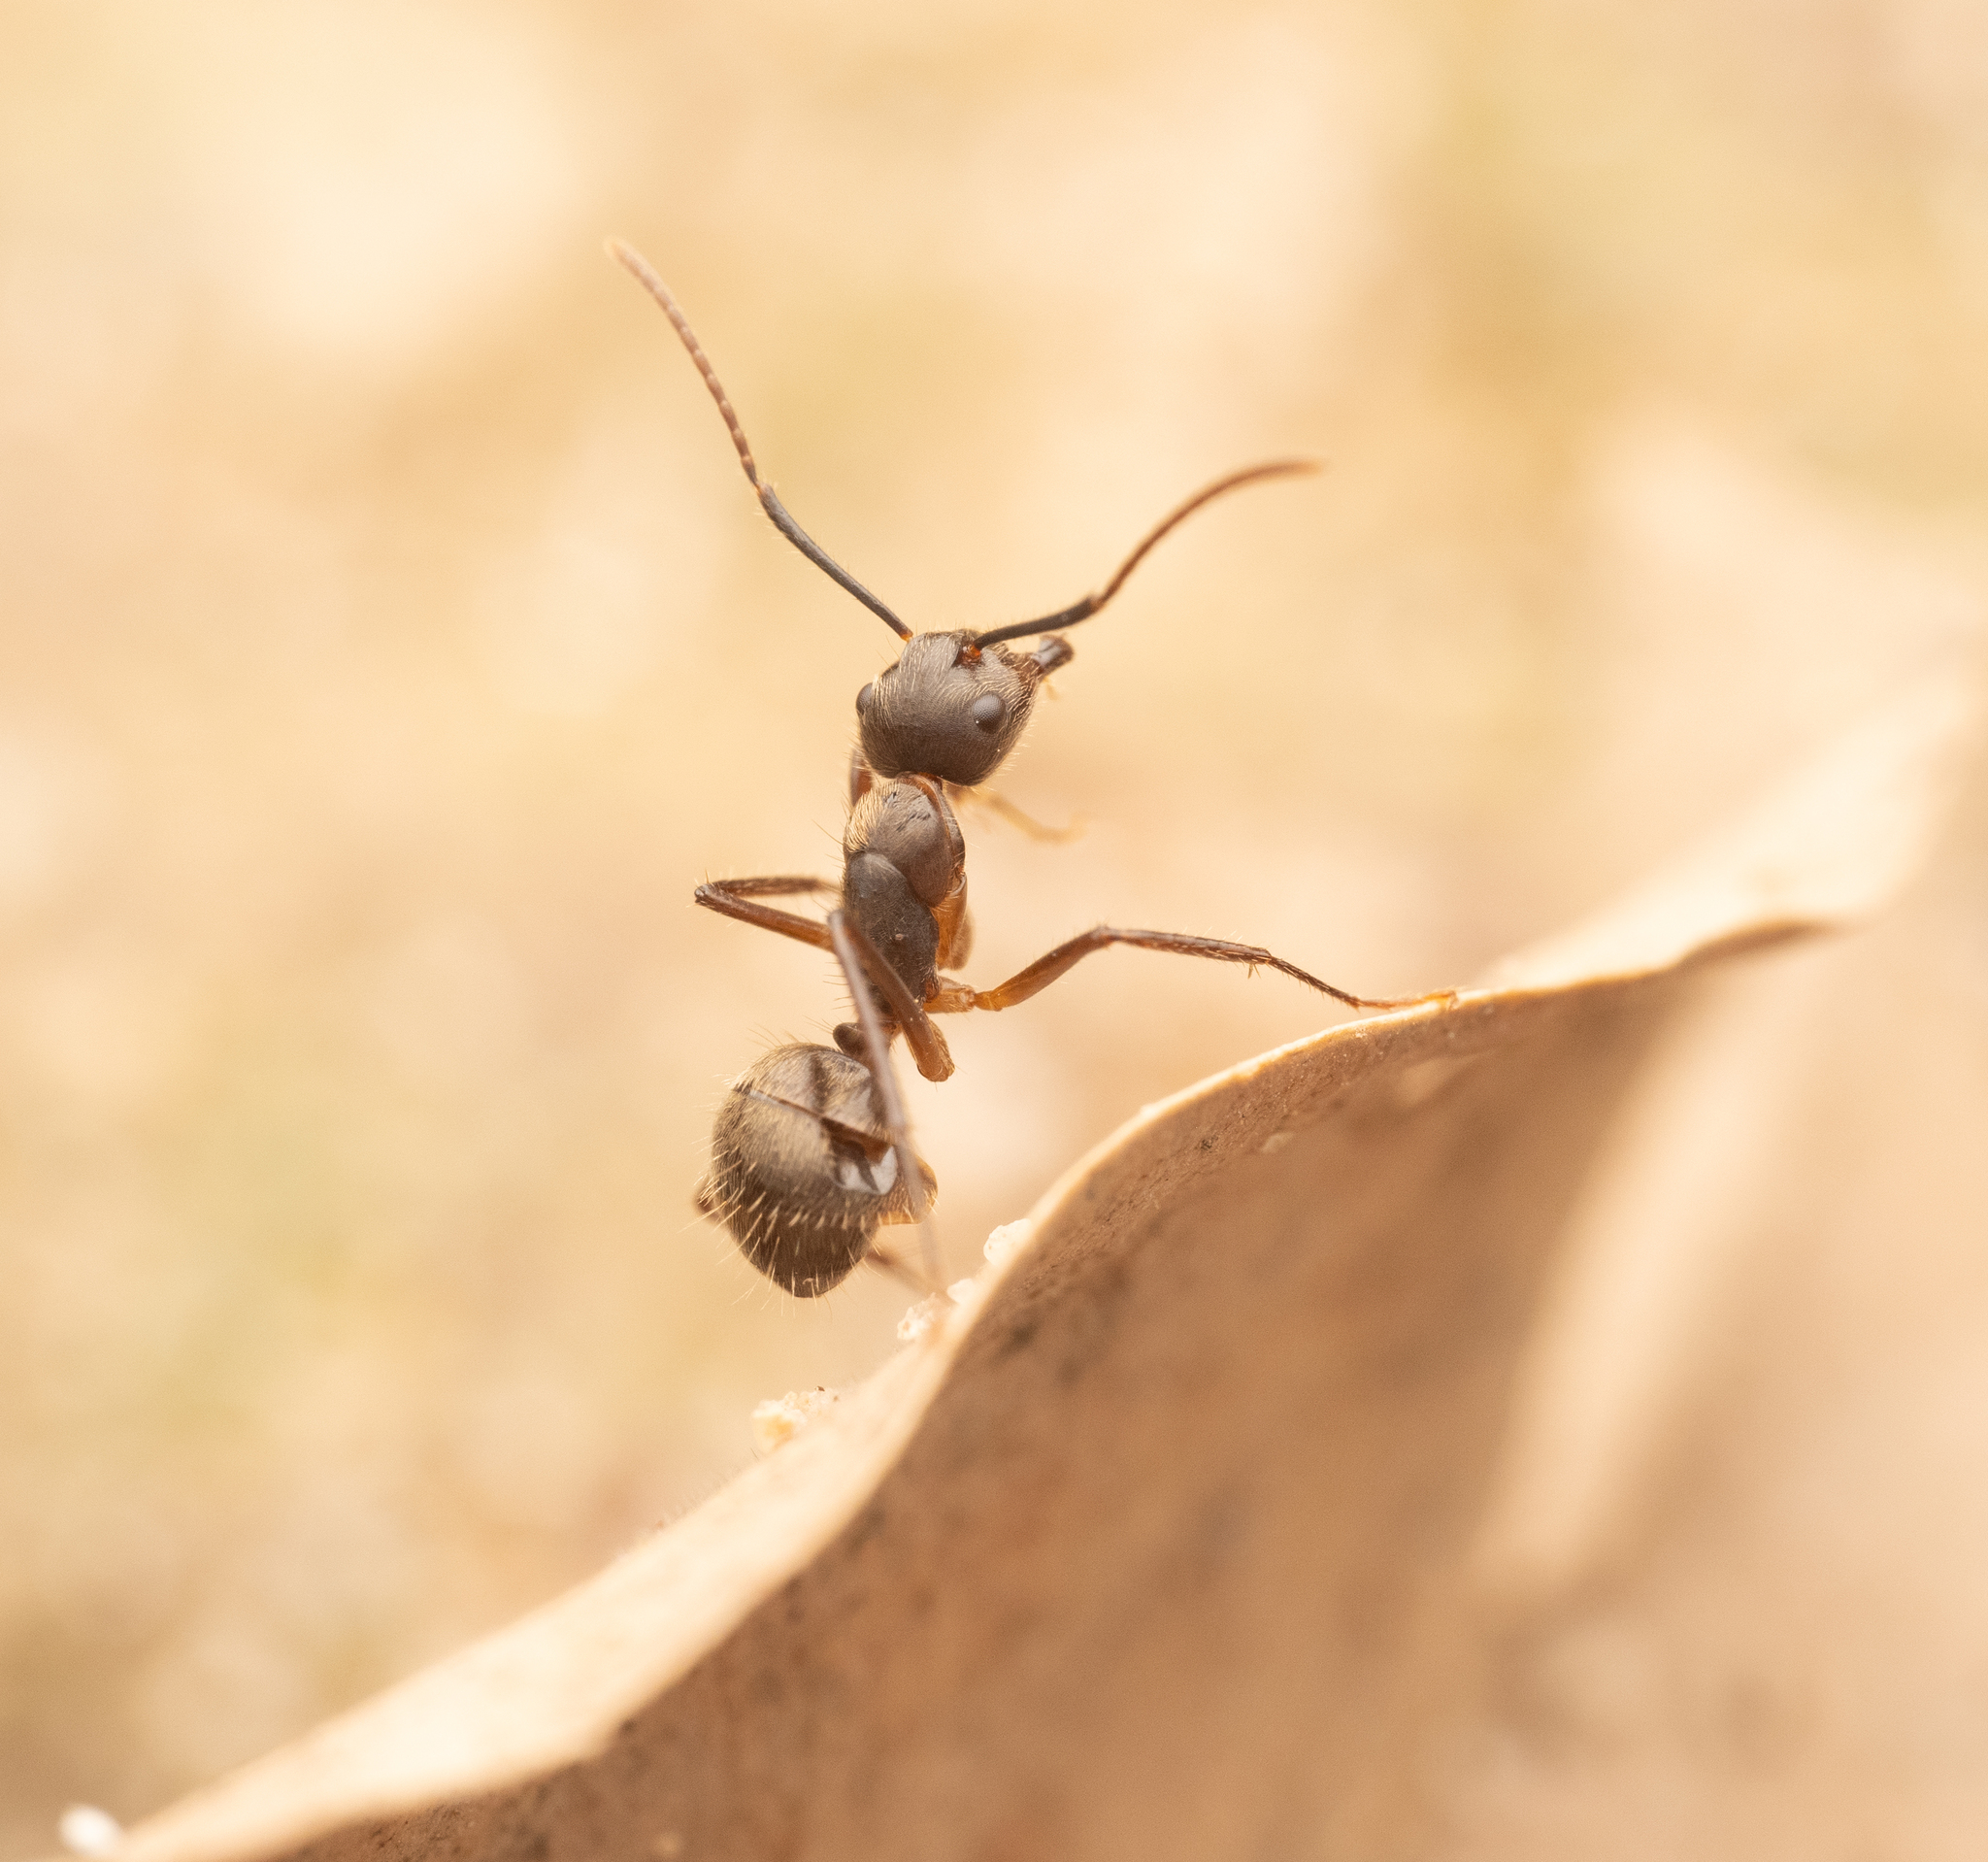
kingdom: Animalia
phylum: Arthropoda
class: Insecta
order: Hymenoptera
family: Formicidae
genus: Camponotus
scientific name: Camponotus femoratus
